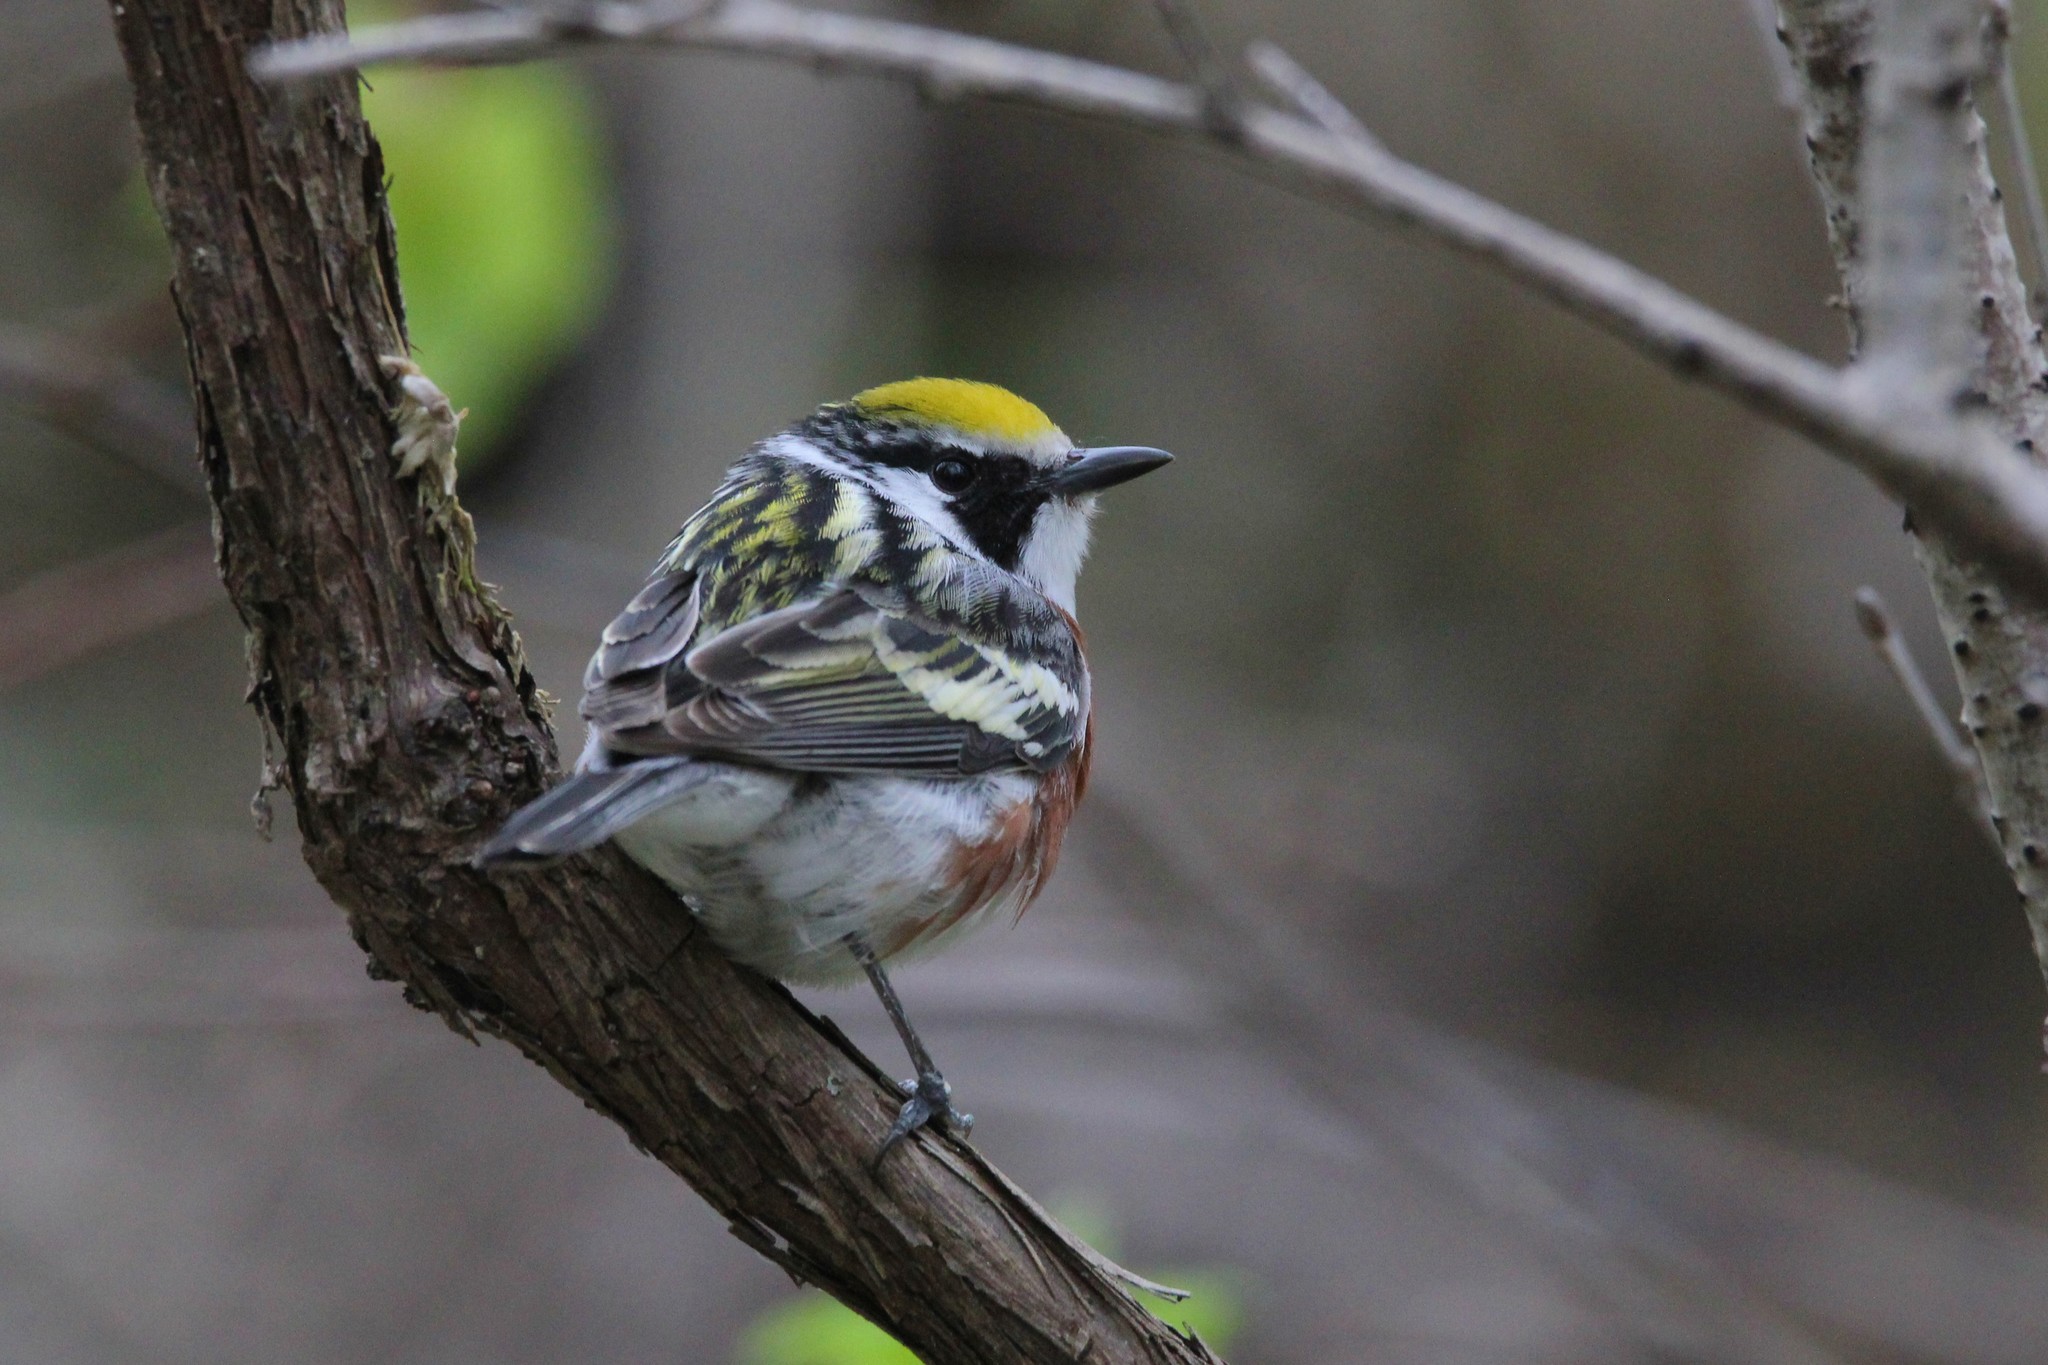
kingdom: Animalia
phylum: Chordata
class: Aves
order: Passeriformes
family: Parulidae
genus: Setophaga
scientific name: Setophaga pensylvanica
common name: Chestnut-sided warbler
